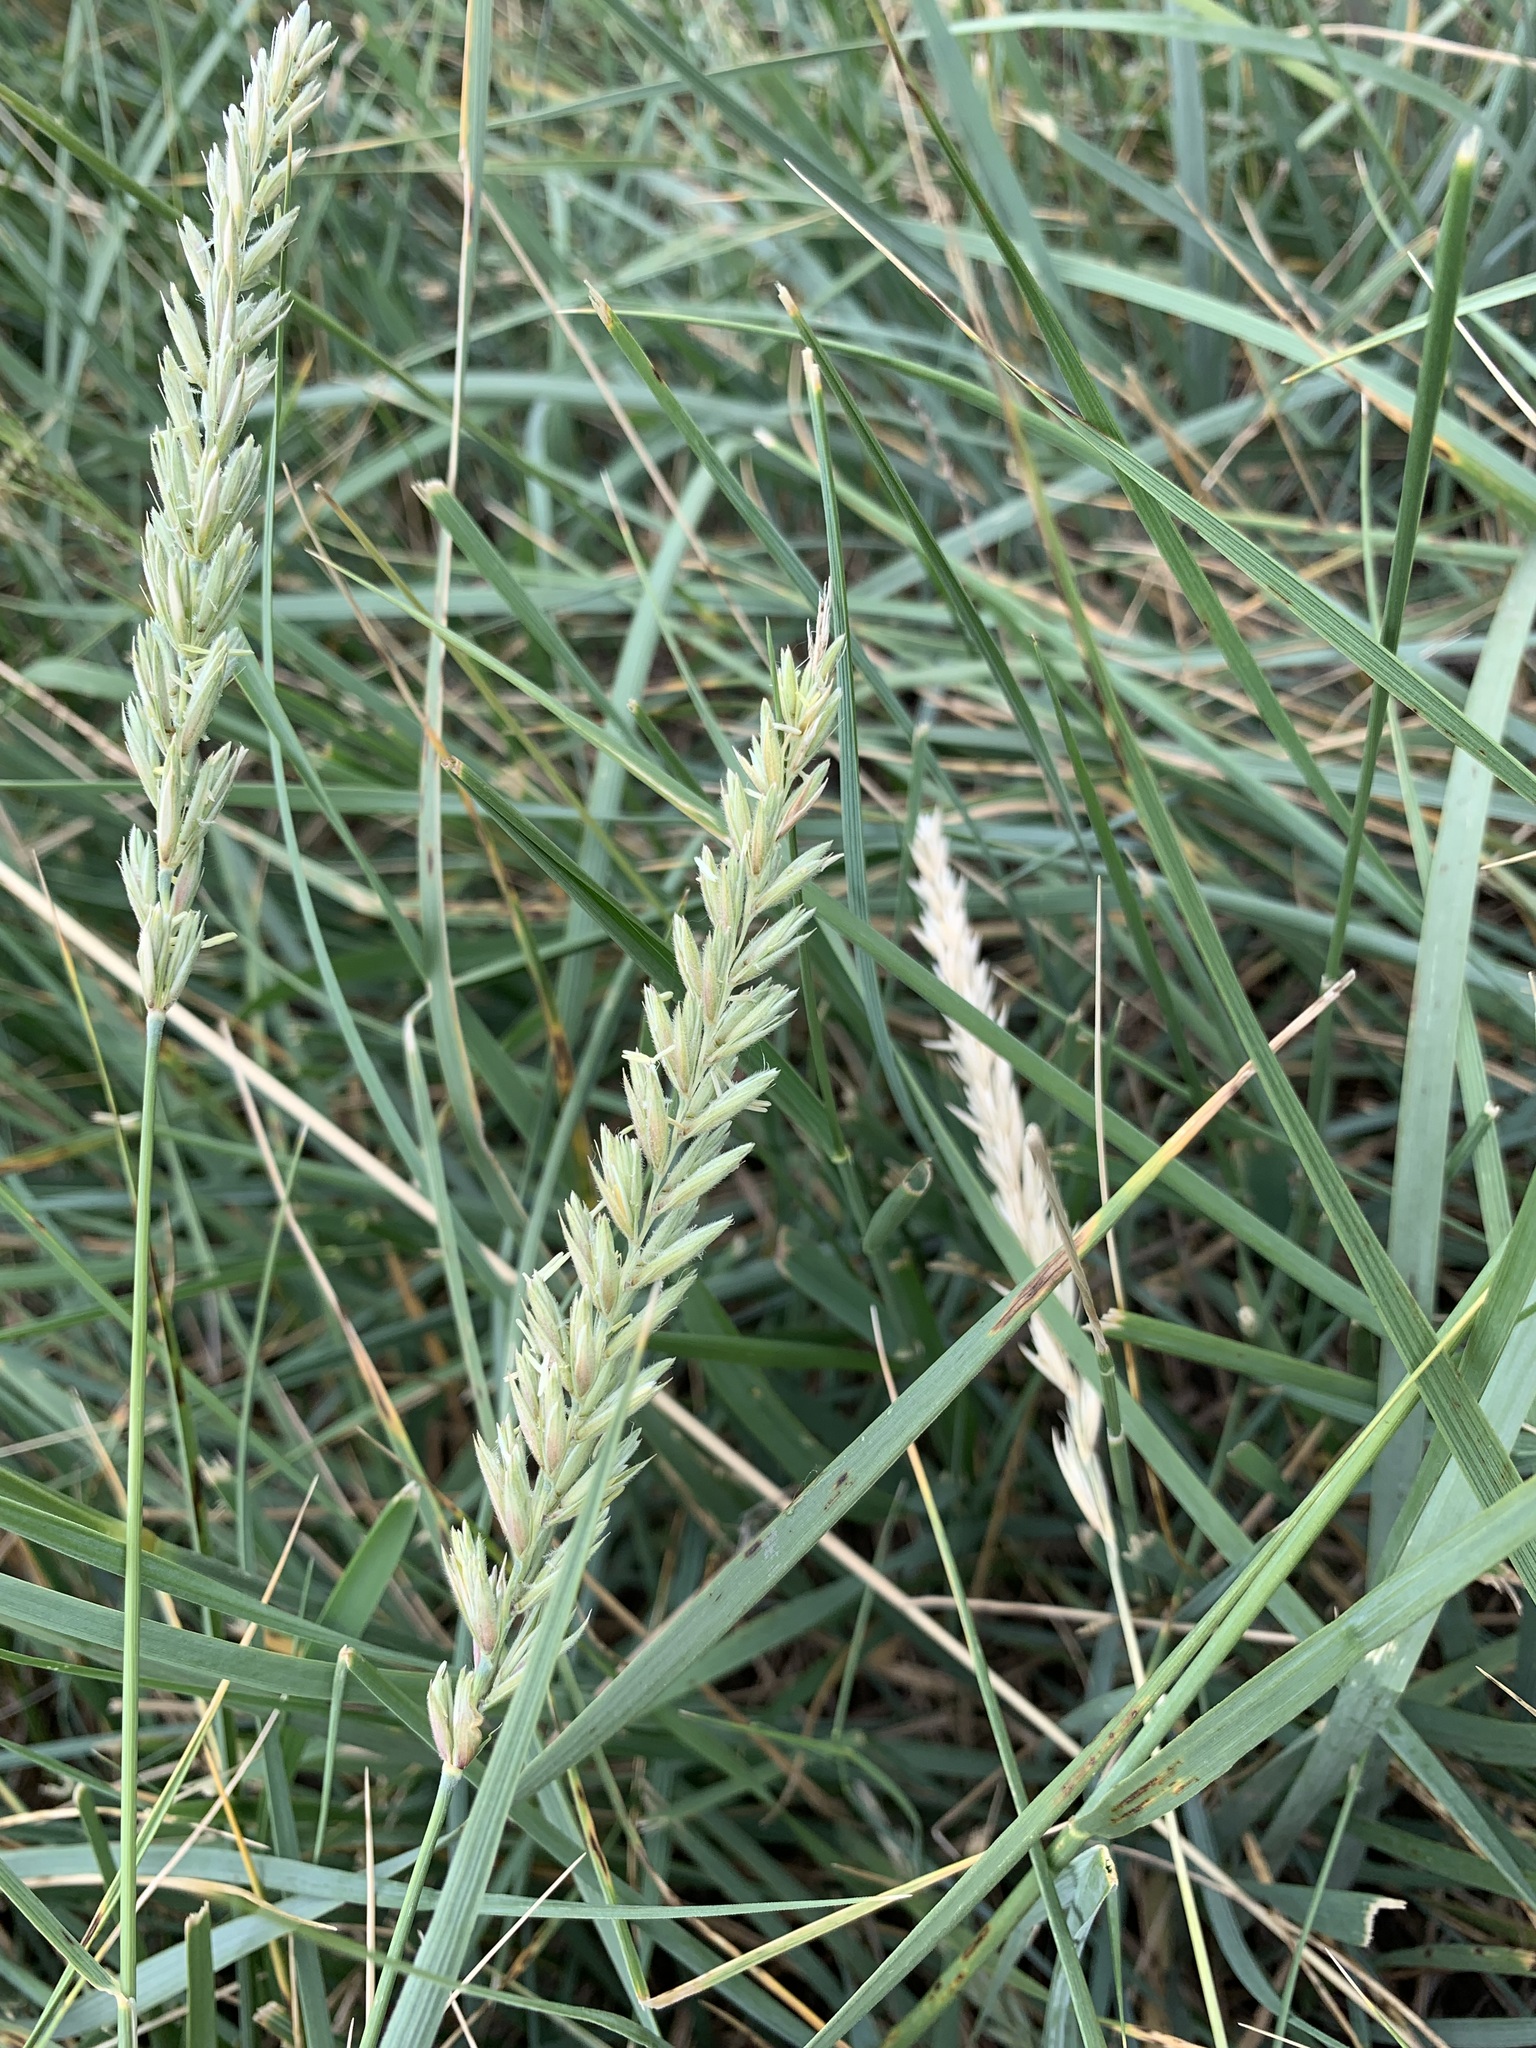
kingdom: Plantae
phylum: Tracheophyta
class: Liliopsida
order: Poales
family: Poaceae
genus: Leymus
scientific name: Leymus paboanus
